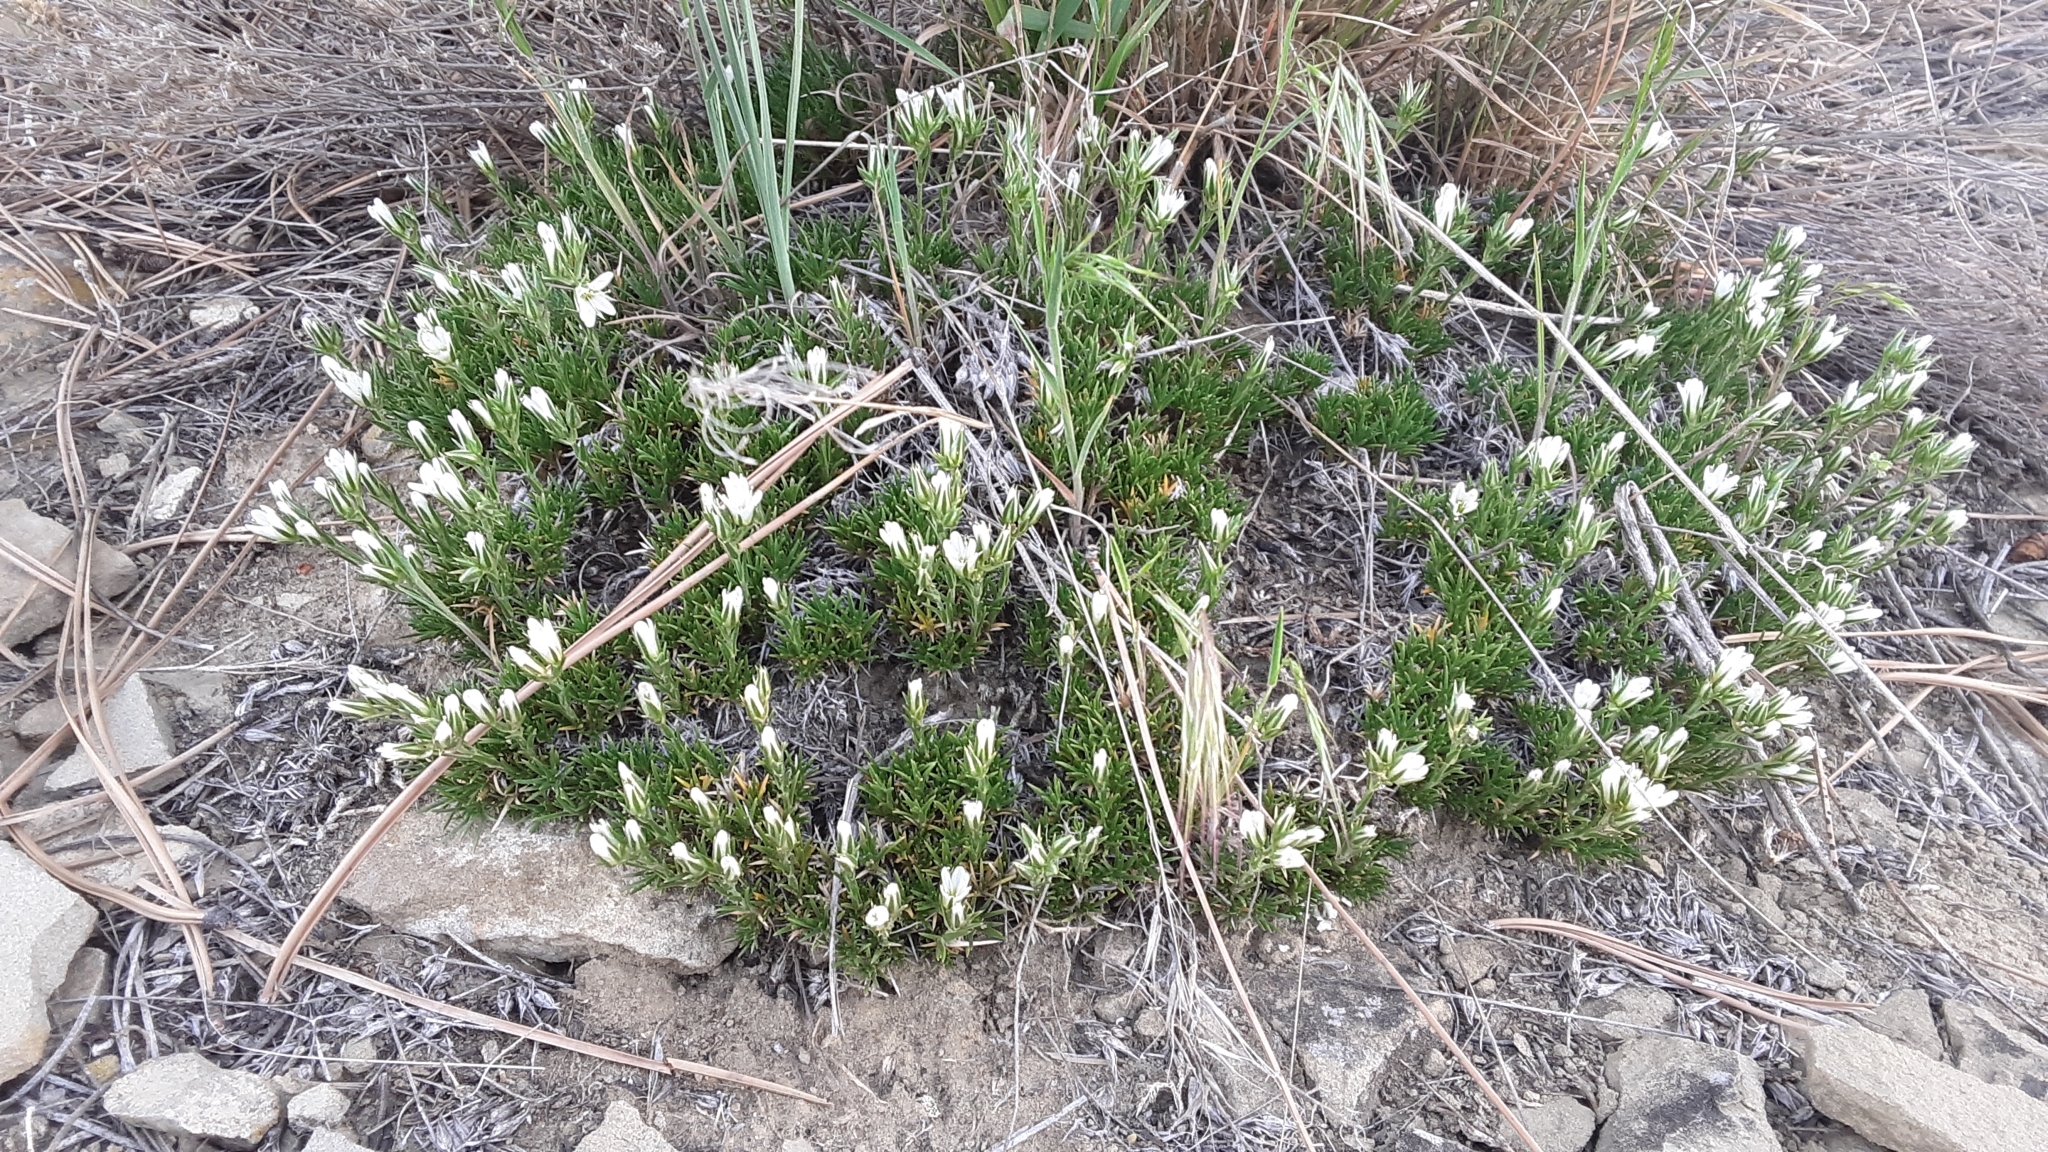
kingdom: Plantae
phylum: Tracheophyta
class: Magnoliopsida
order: Caryophyllales
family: Caryophyllaceae
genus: Eremogone
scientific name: Eremogone hookeri
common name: Hooker's sandwort
